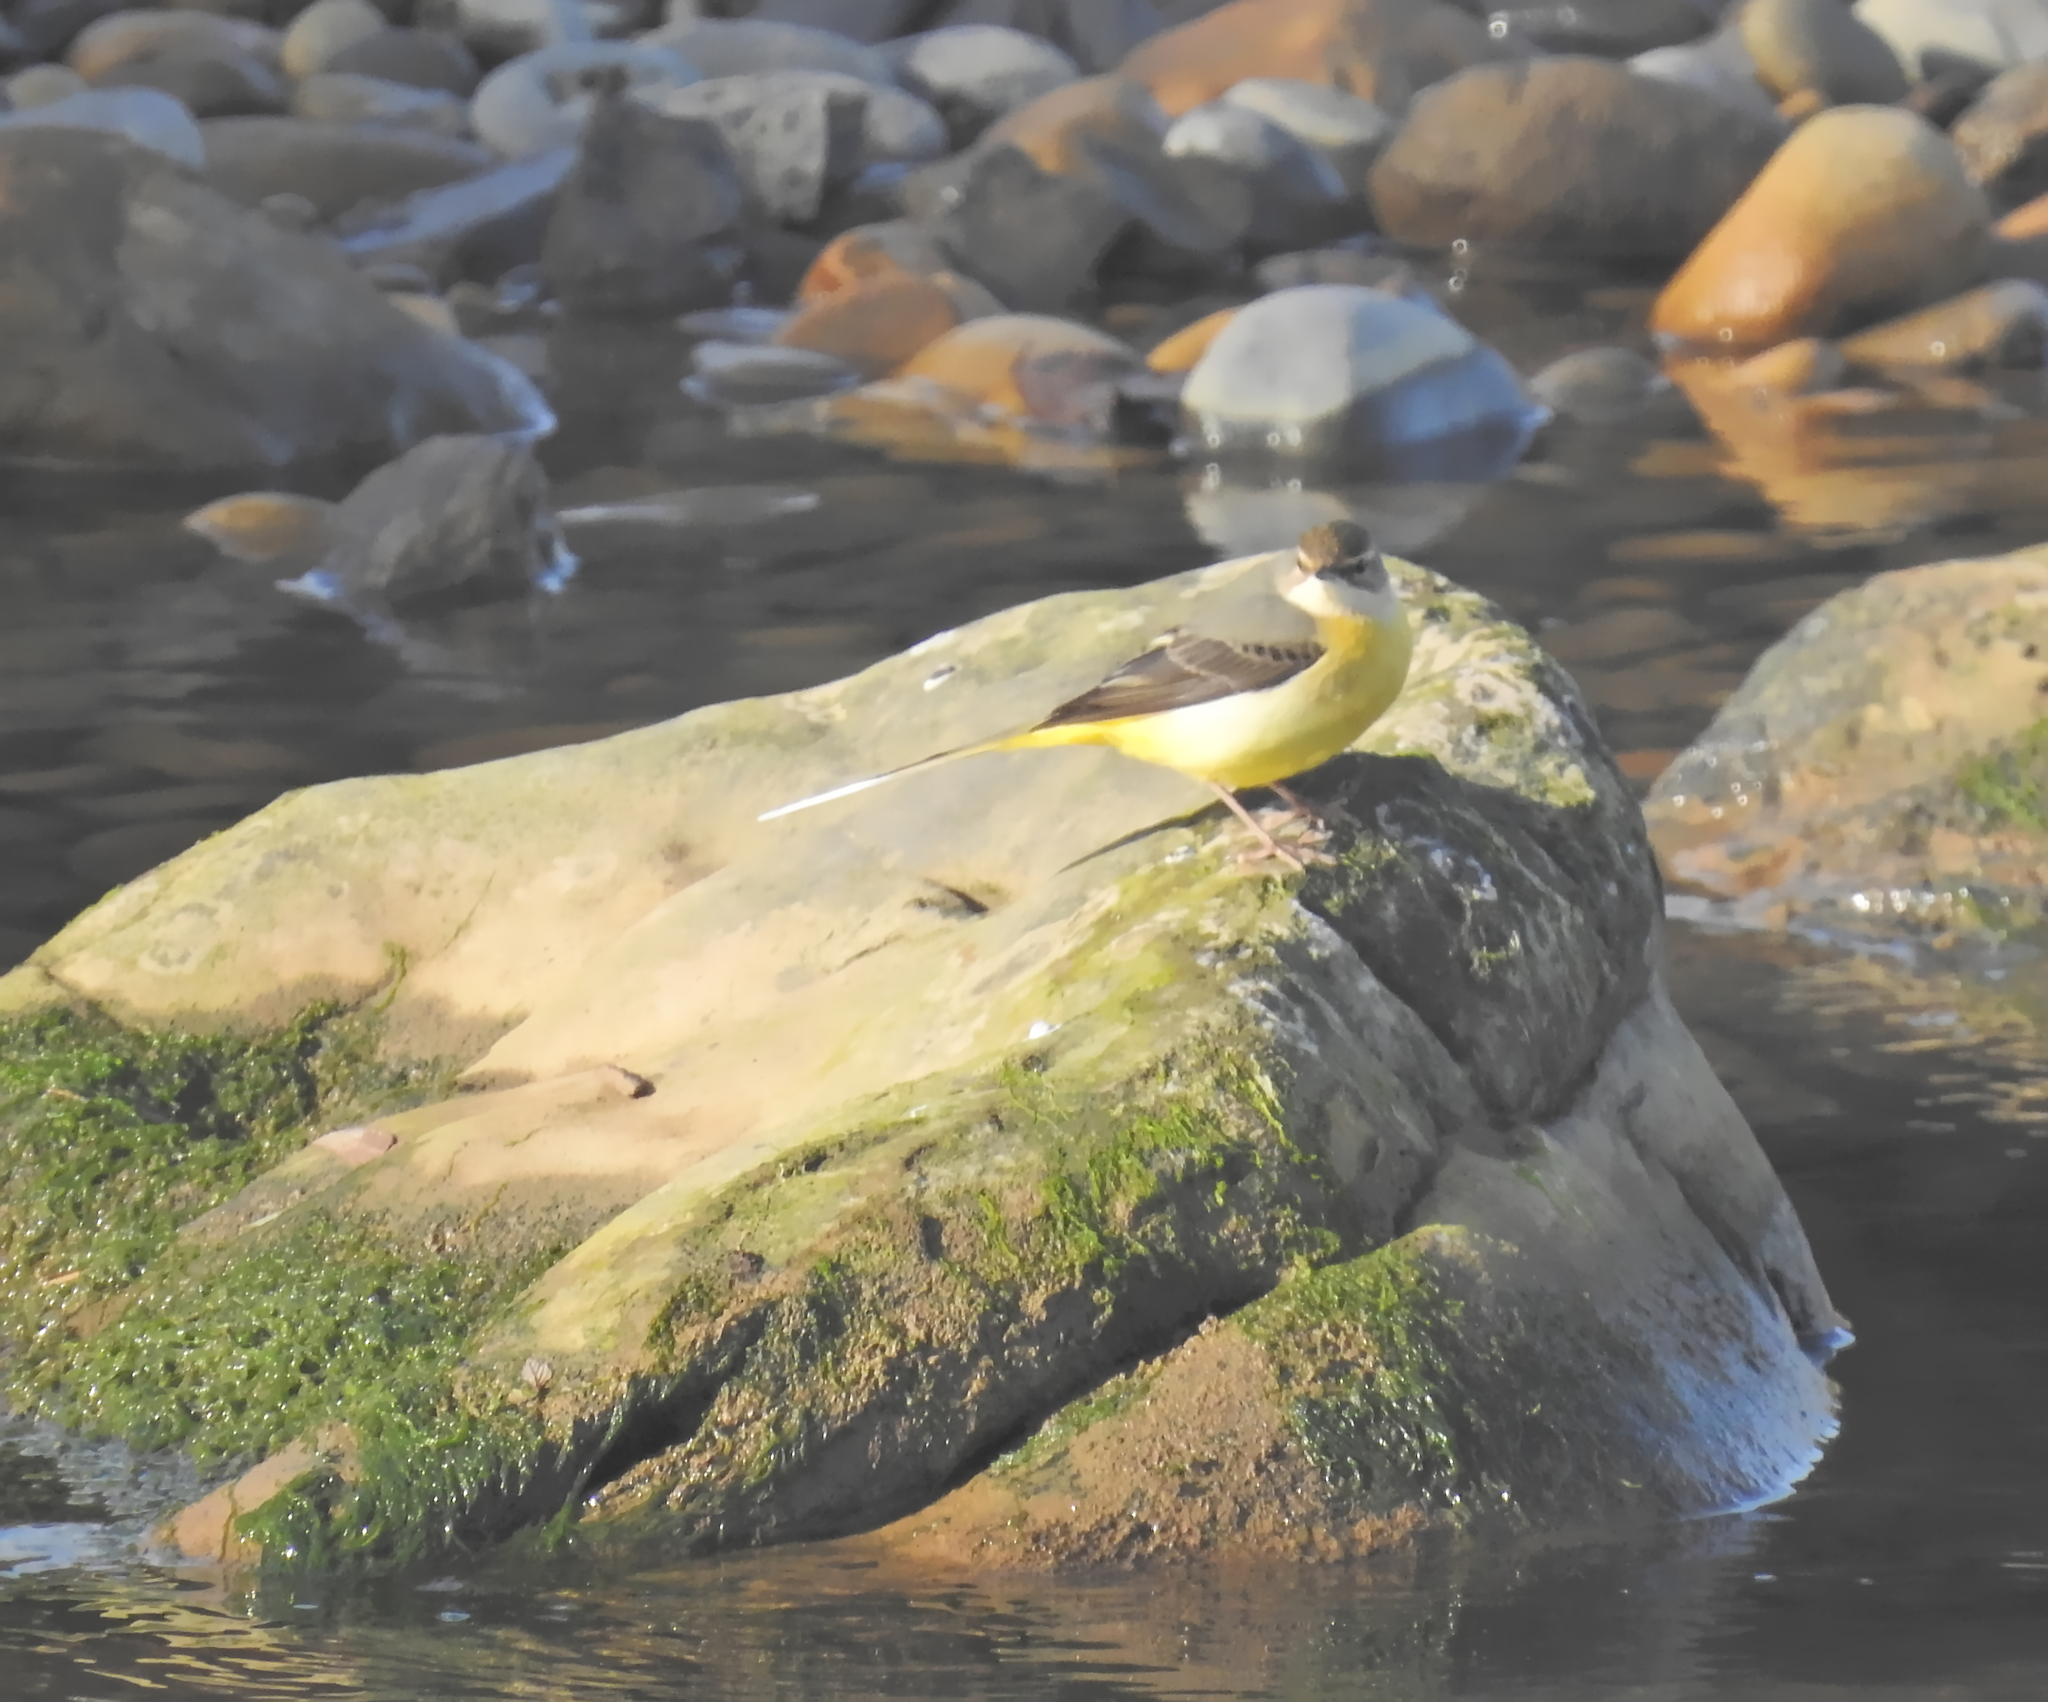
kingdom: Animalia
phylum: Chordata
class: Aves
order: Passeriformes
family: Motacillidae
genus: Motacilla
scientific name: Motacilla cinerea
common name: Grey wagtail
